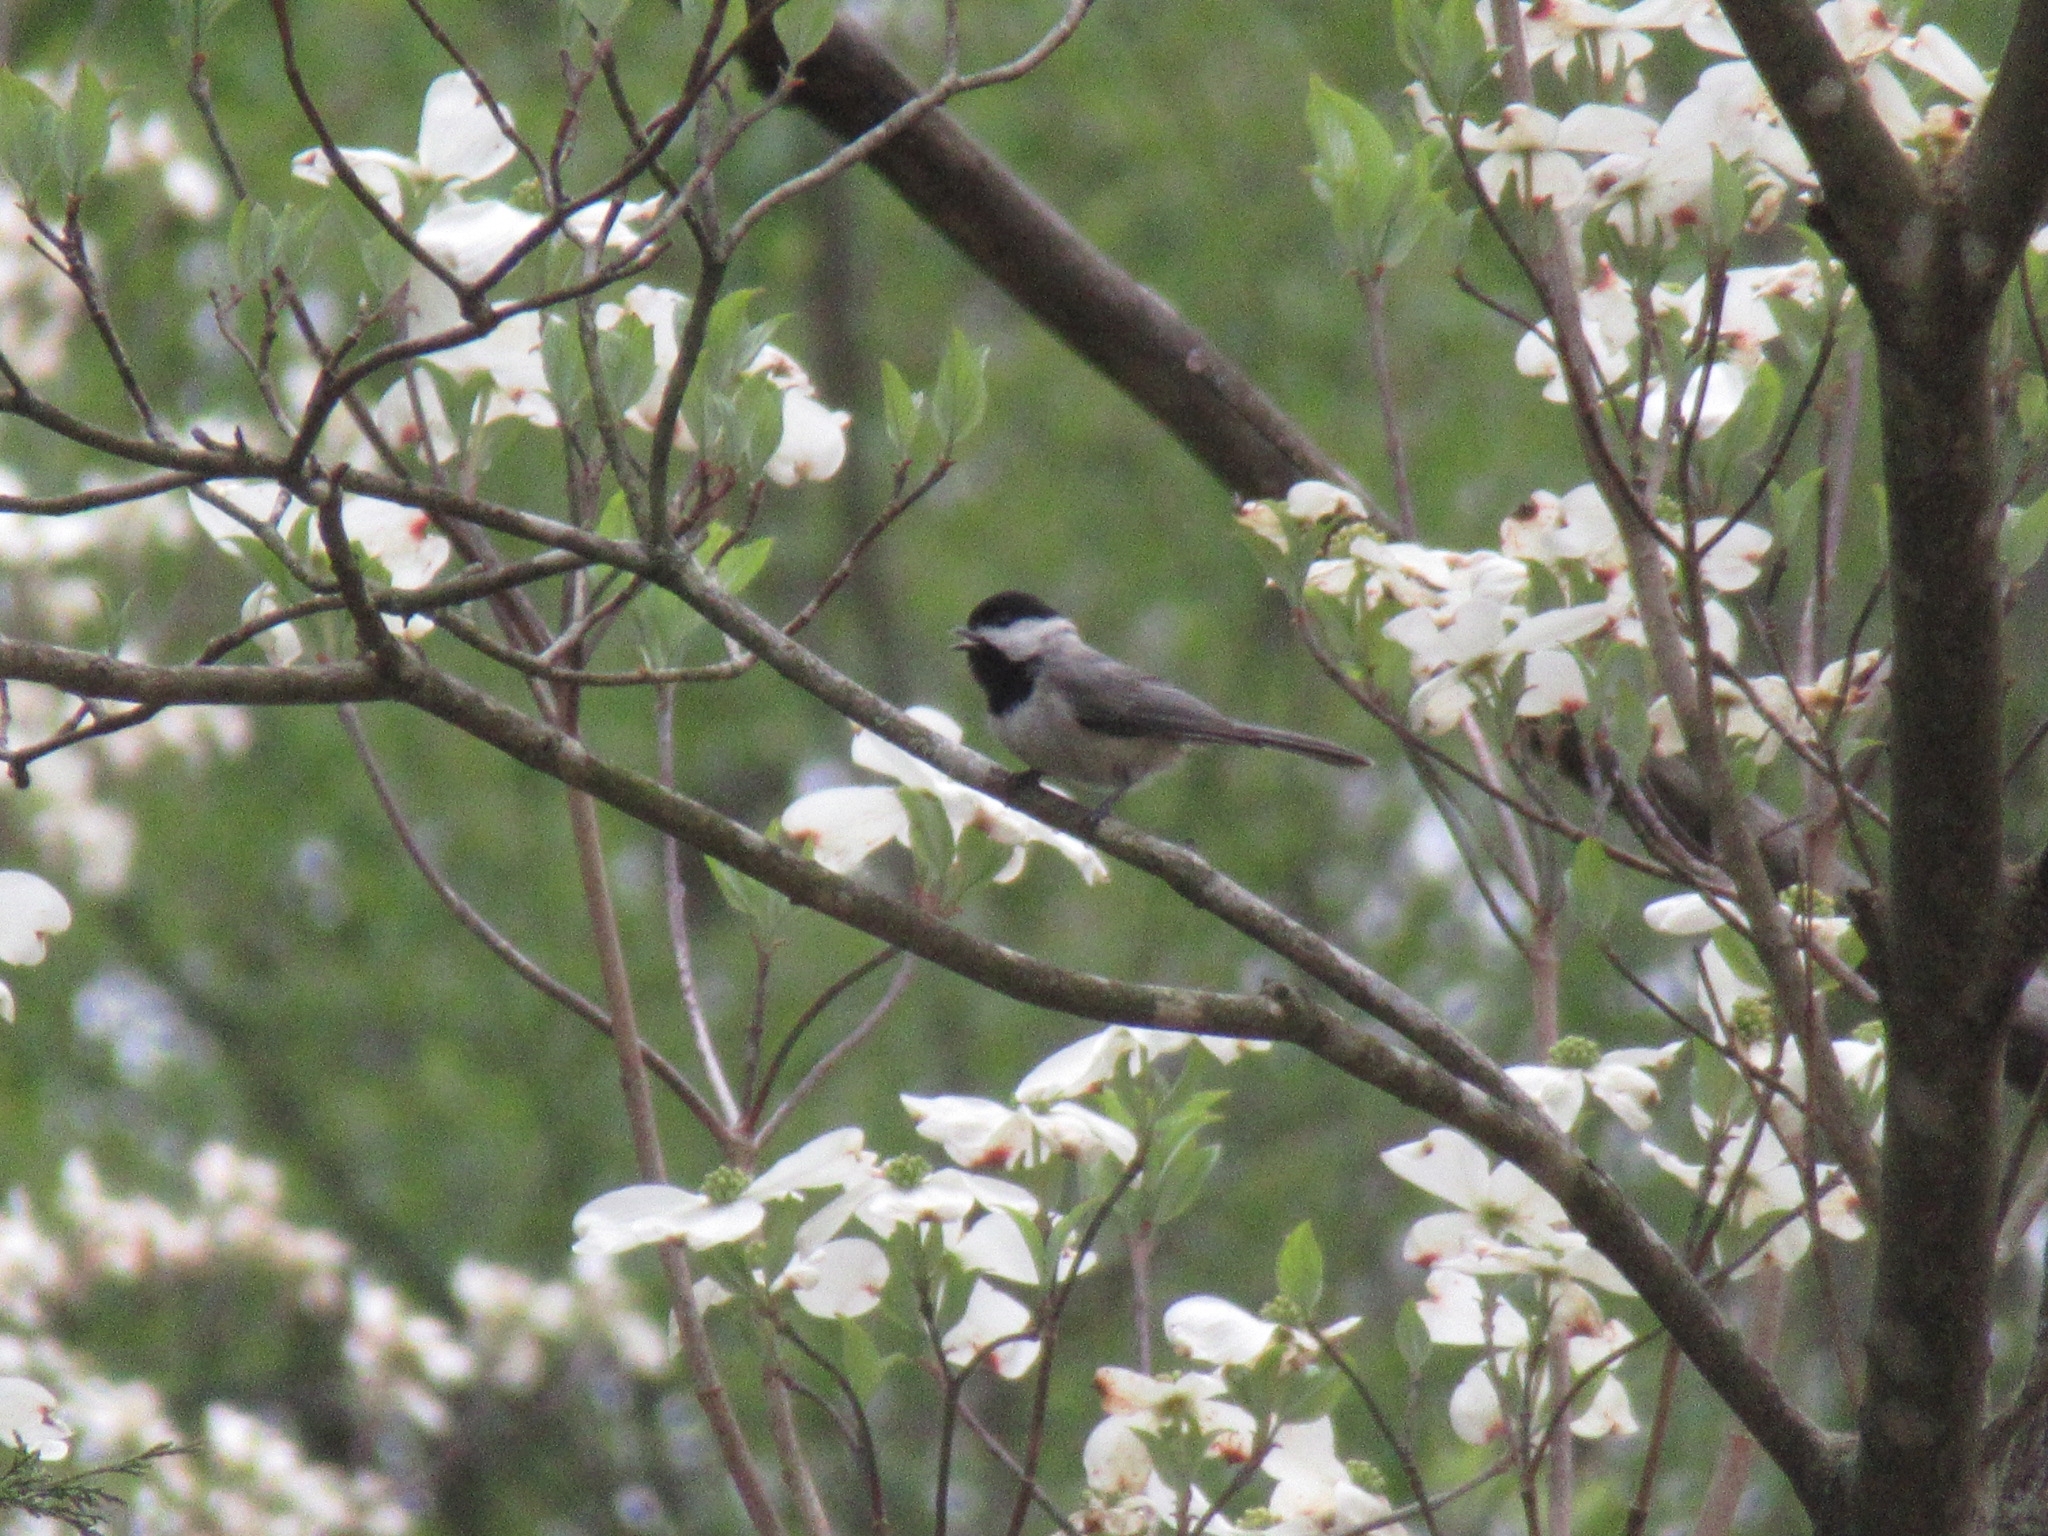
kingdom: Animalia
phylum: Chordata
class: Aves
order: Passeriformes
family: Paridae
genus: Poecile
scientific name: Poecile carolinensis
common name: Carolina chickadee
